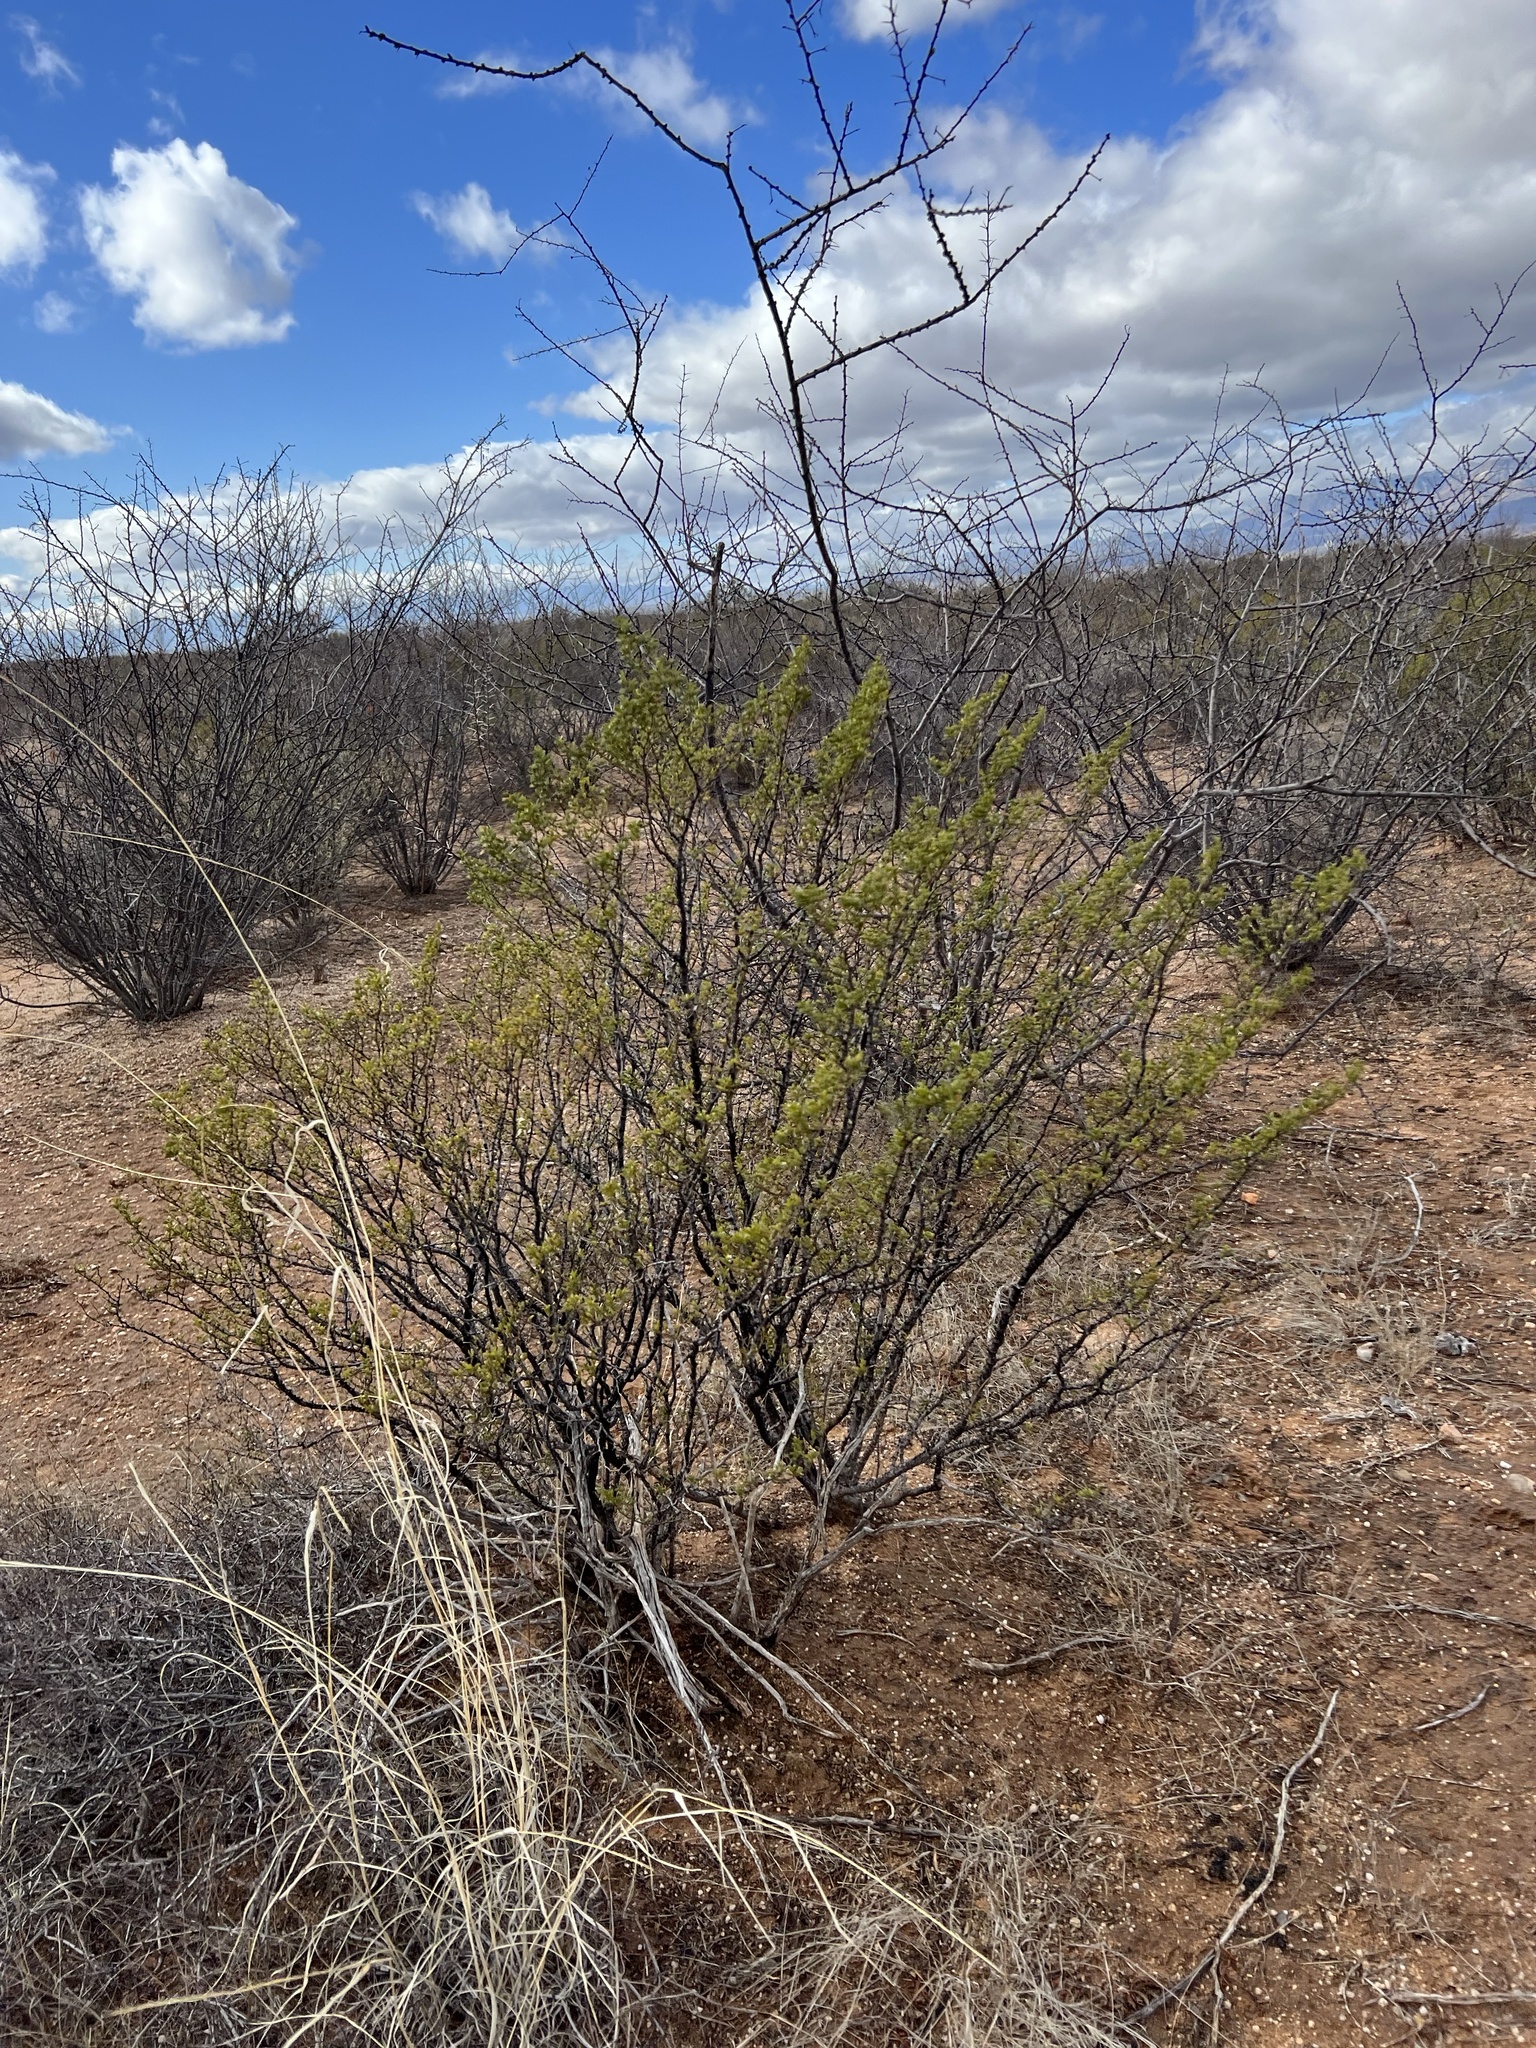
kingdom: Plantae
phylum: Tracheophyta
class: Magnoliopsida
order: Zygophyllales
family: Zygophyllaceae
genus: Larrea
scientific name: Larrea tridentata
